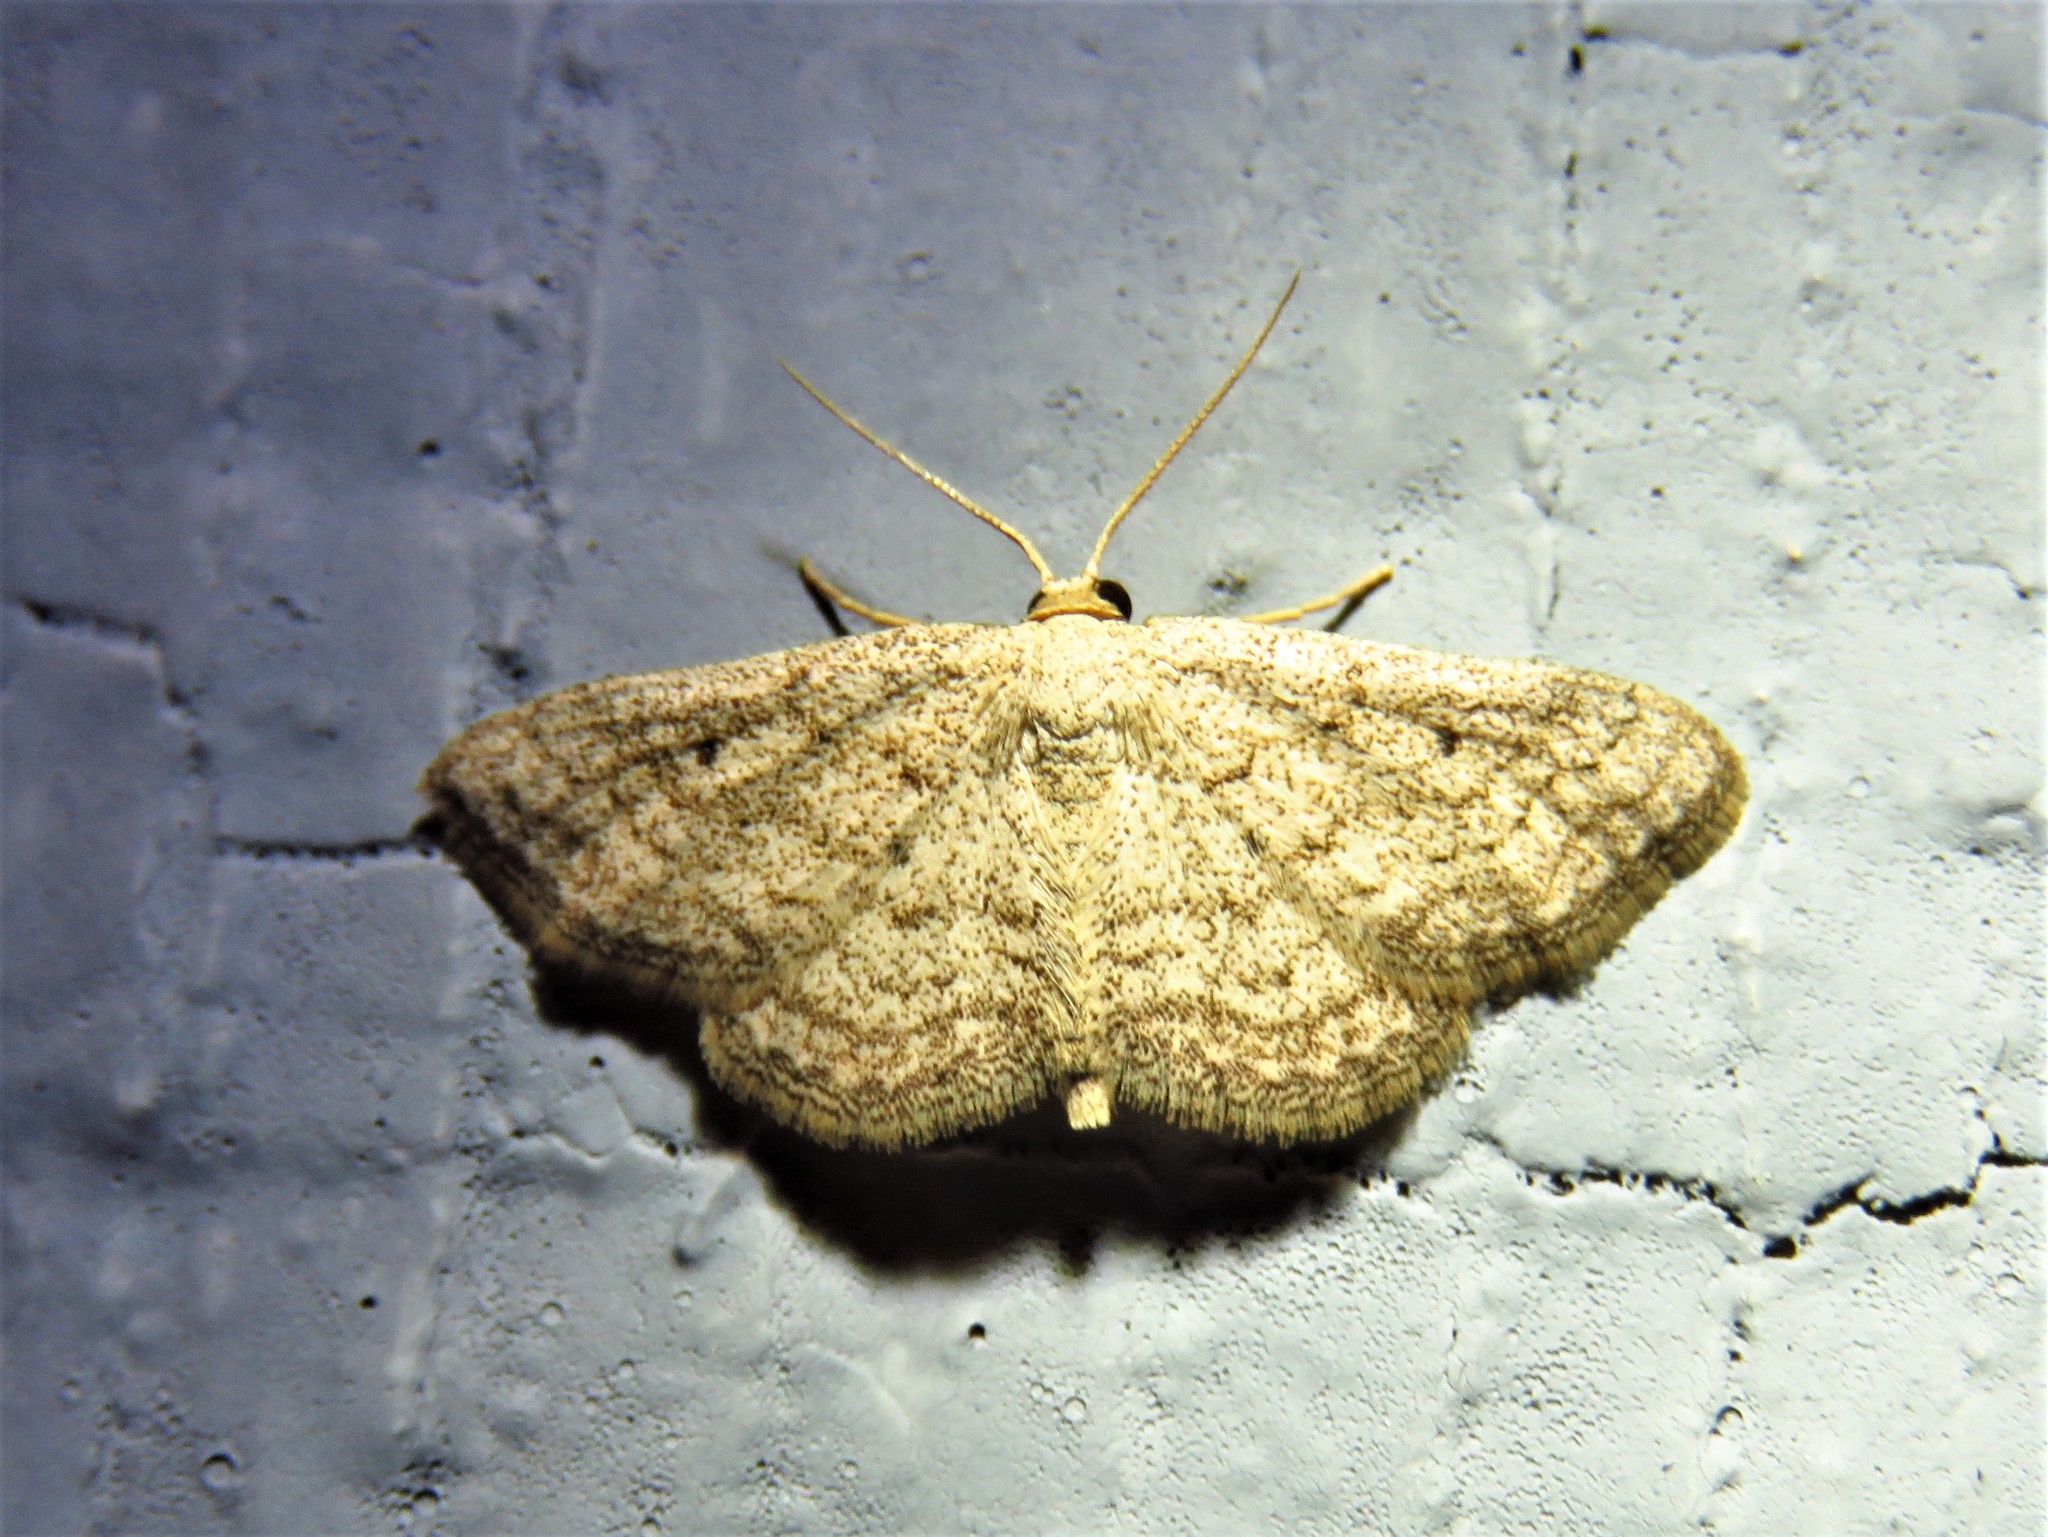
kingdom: Animalia
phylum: Arthropoda
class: Insecta
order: Lepidoptera
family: Geometridae
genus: Lobocleta
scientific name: Lobocleta ossularia
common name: Drab brown wave
